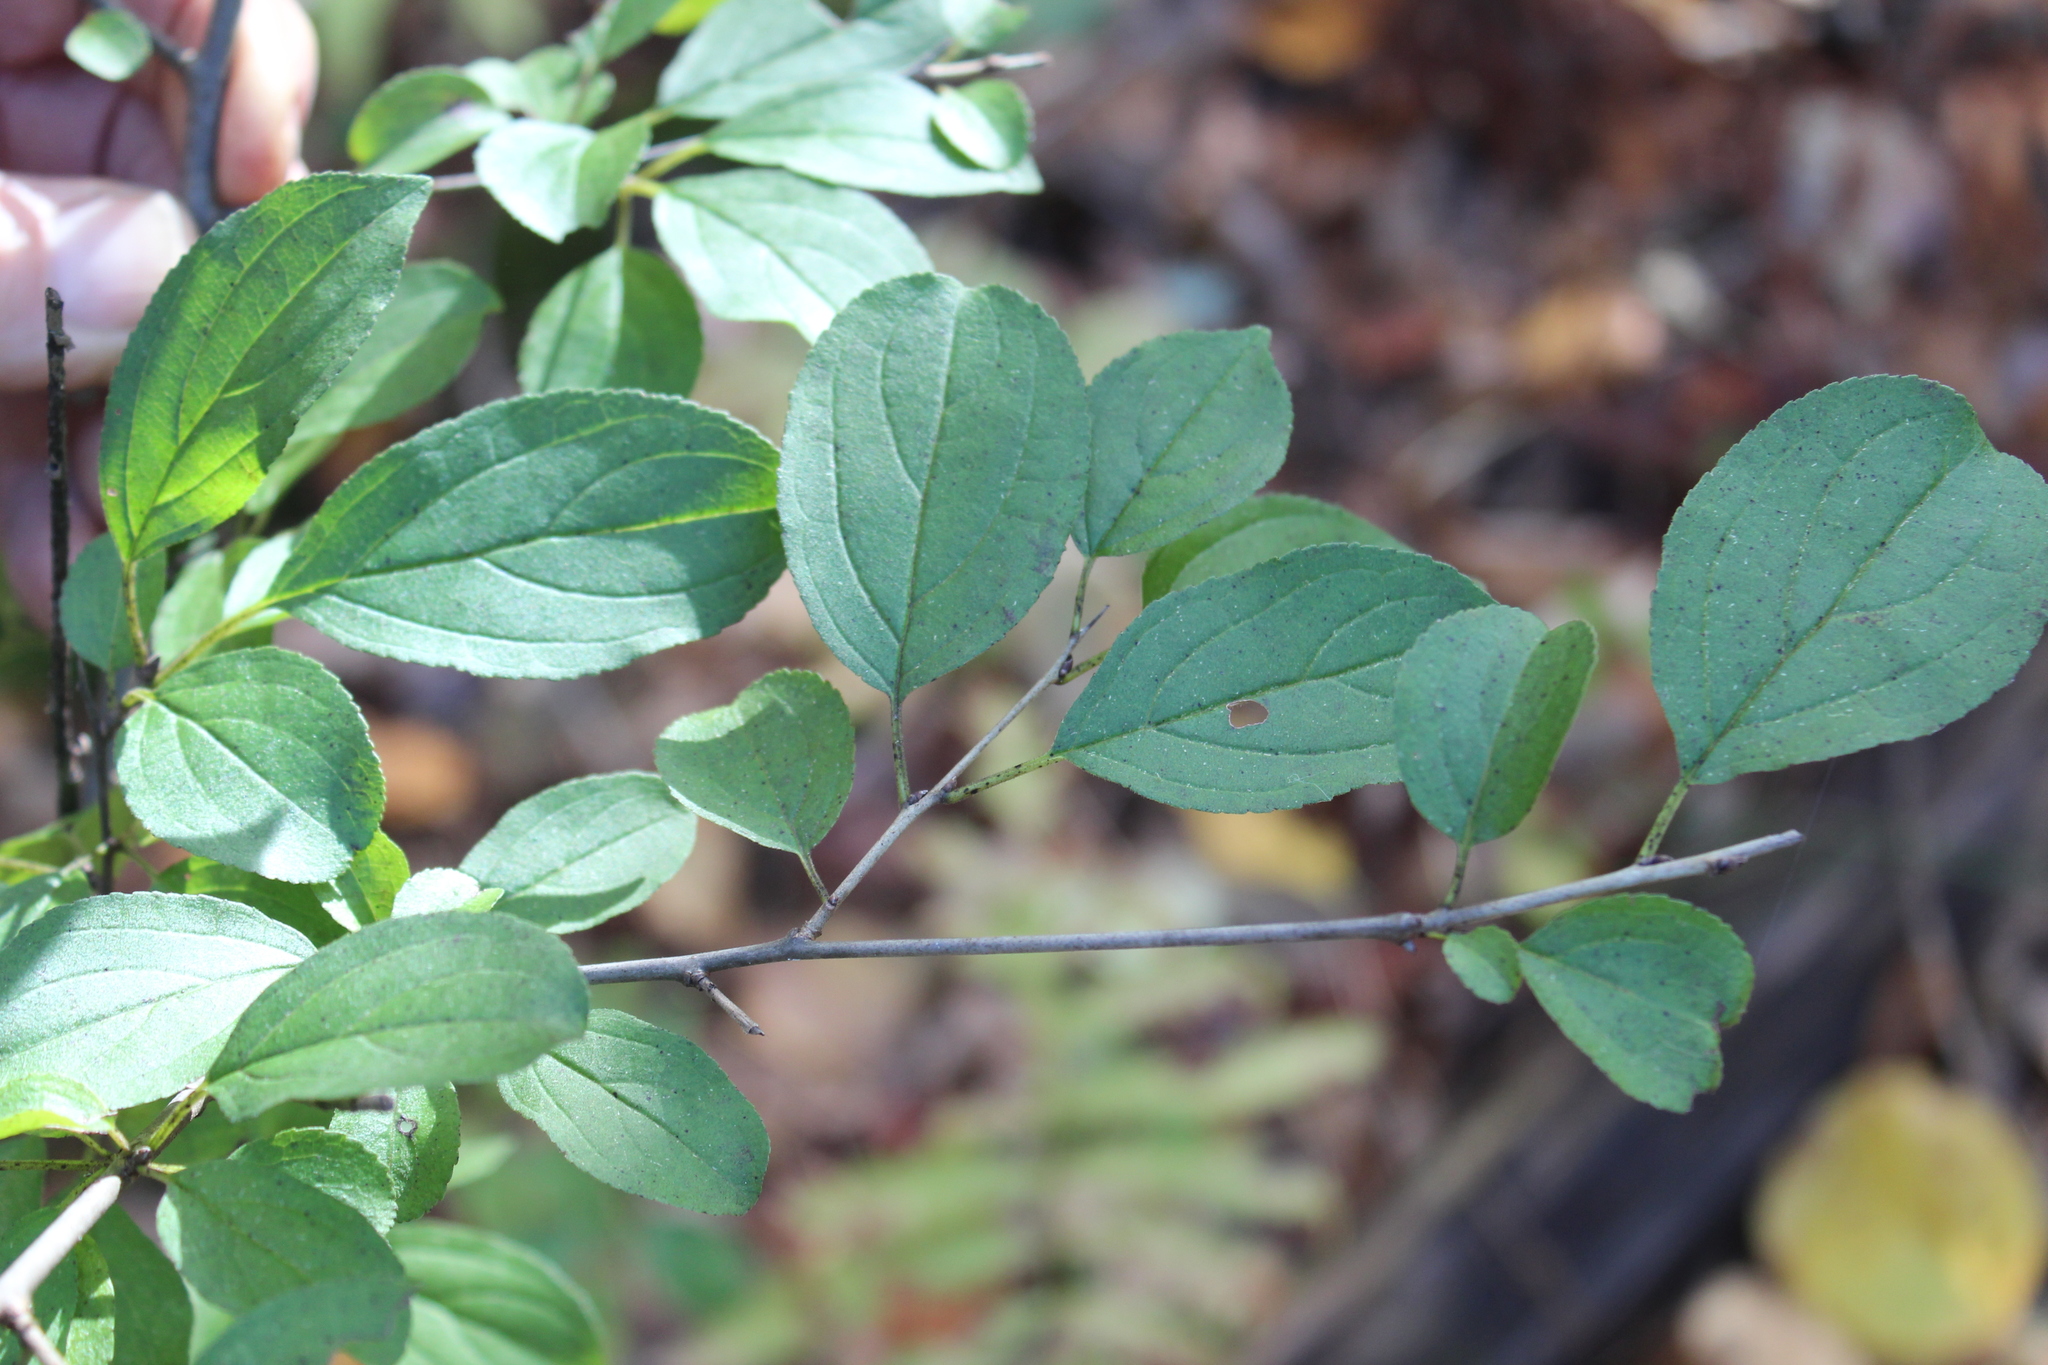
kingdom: Plantae
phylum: Tracheophyta
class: Magnoliopsida
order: Rosales
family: Rhamnaceae
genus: Rhamnus
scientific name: Rhamnus cathartica
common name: Common buckthorn
